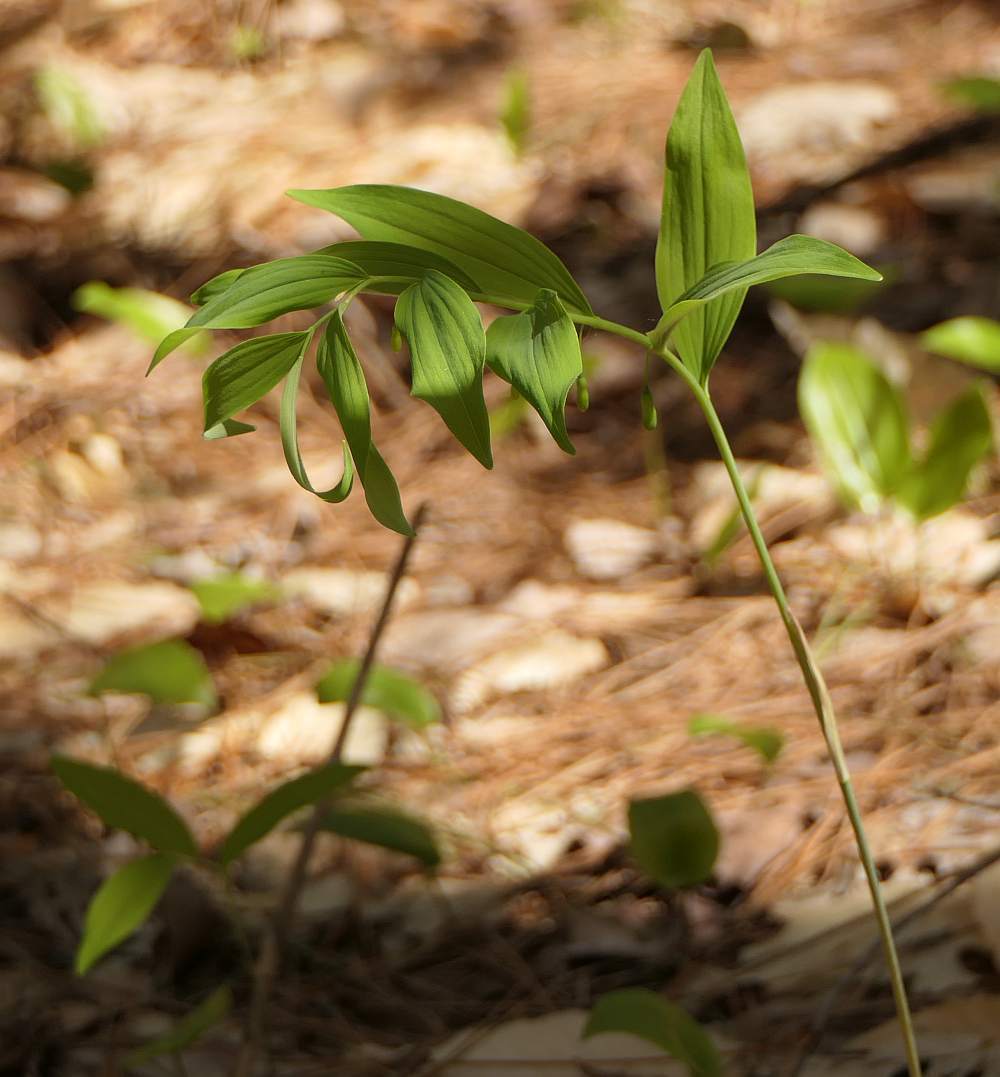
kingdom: Plantae
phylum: Tracheophyta
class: Liliopsida
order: Asparagales
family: Asparagaceae
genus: Polygonatum
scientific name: Polygonatum pubescens
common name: Downy solomon's seal
